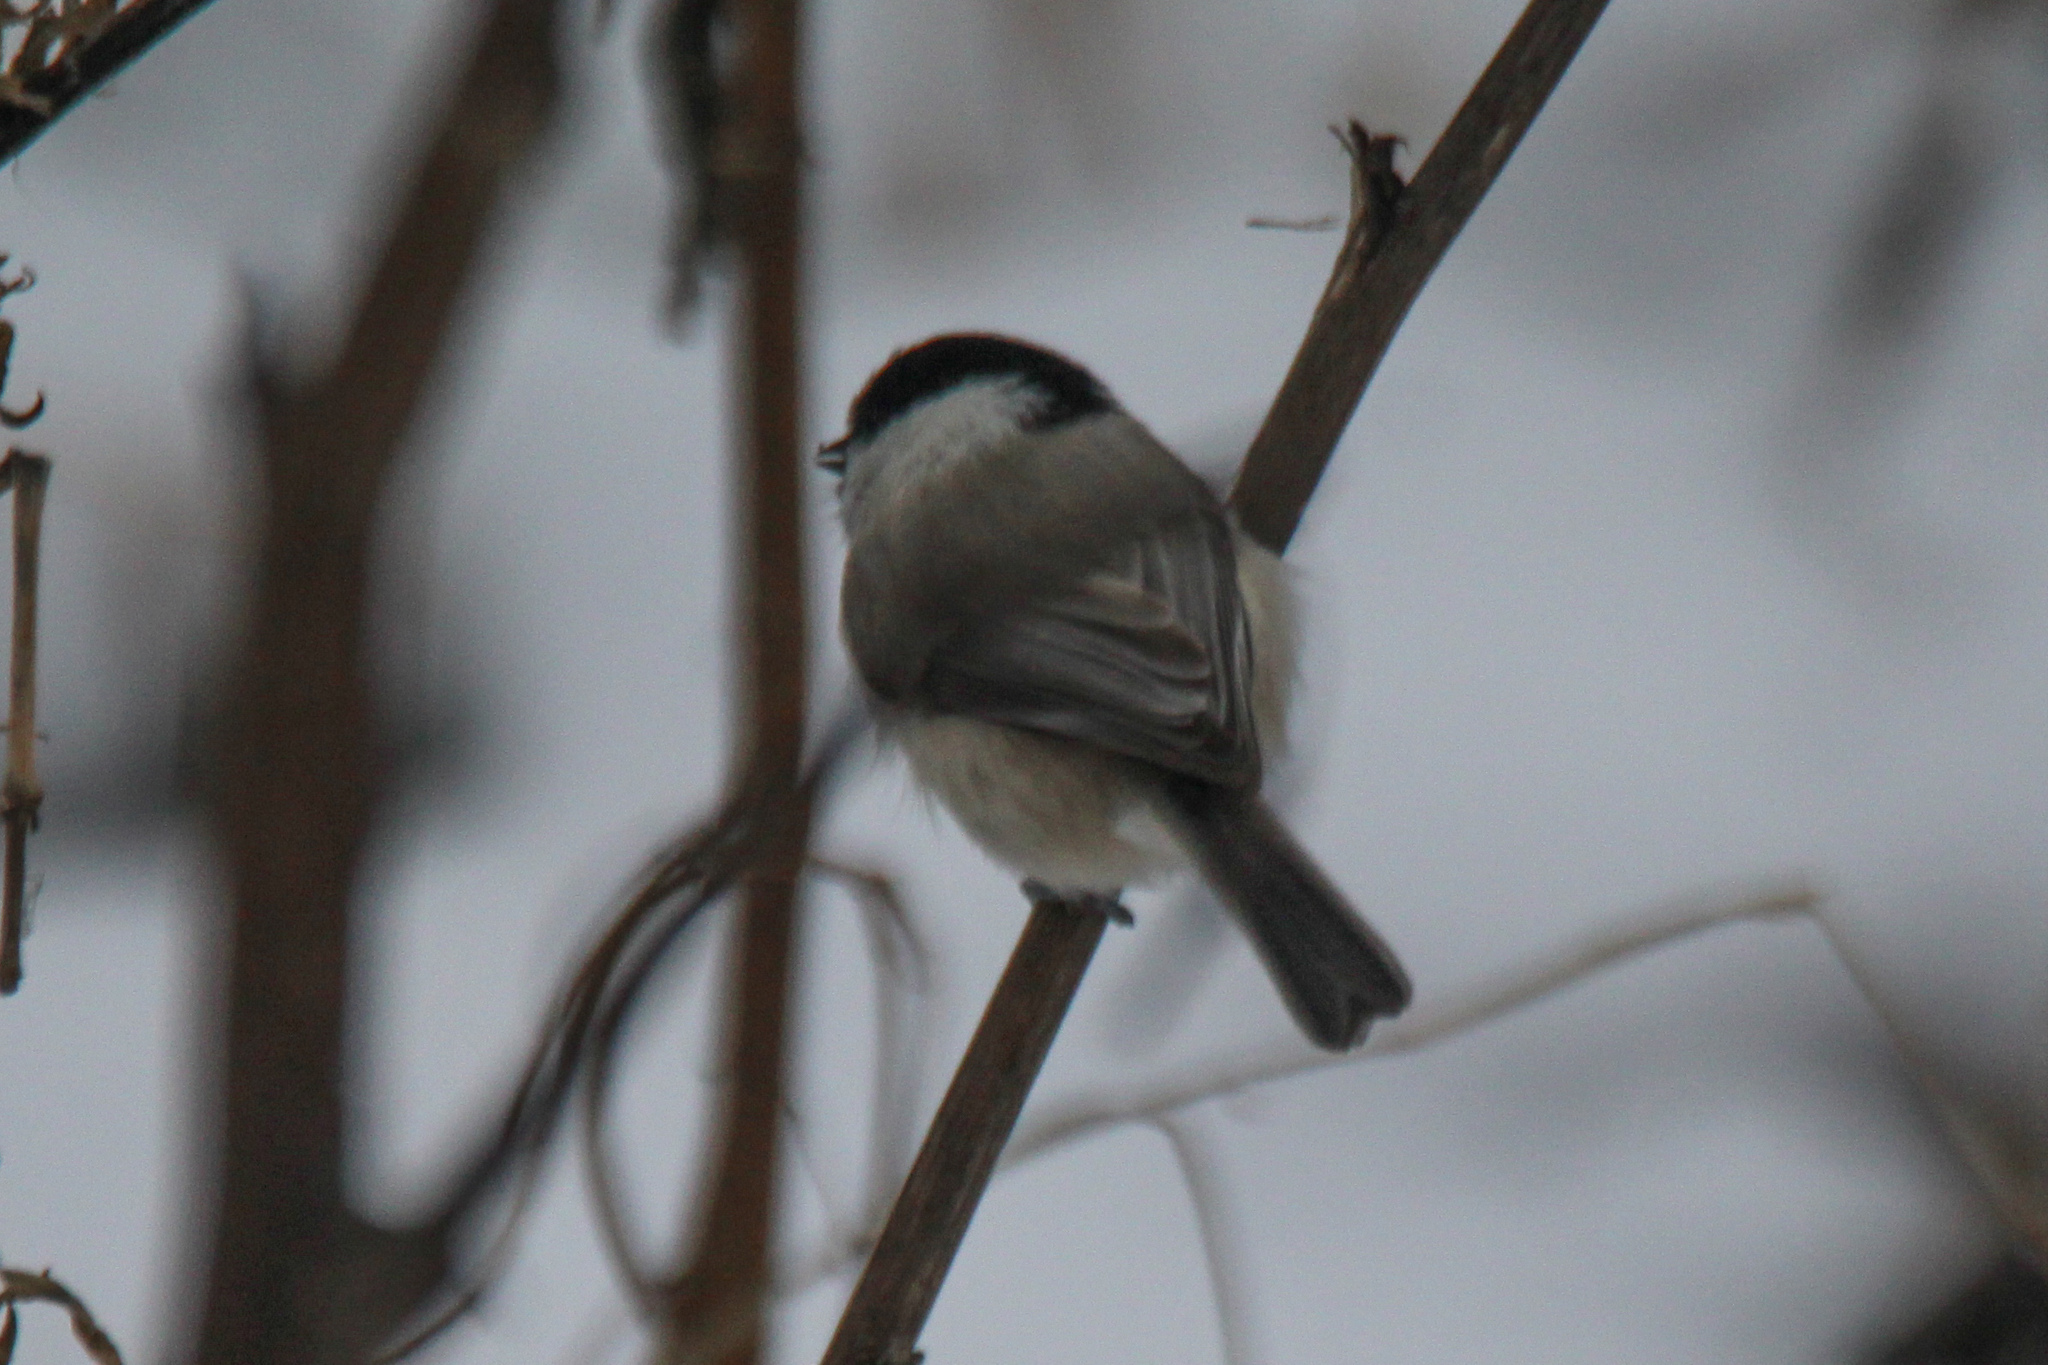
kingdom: Animalia
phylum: Chordata
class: Aves
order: Passeriformes
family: Paridae
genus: Poecile
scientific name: Poecile palustris
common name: Marsh tit
